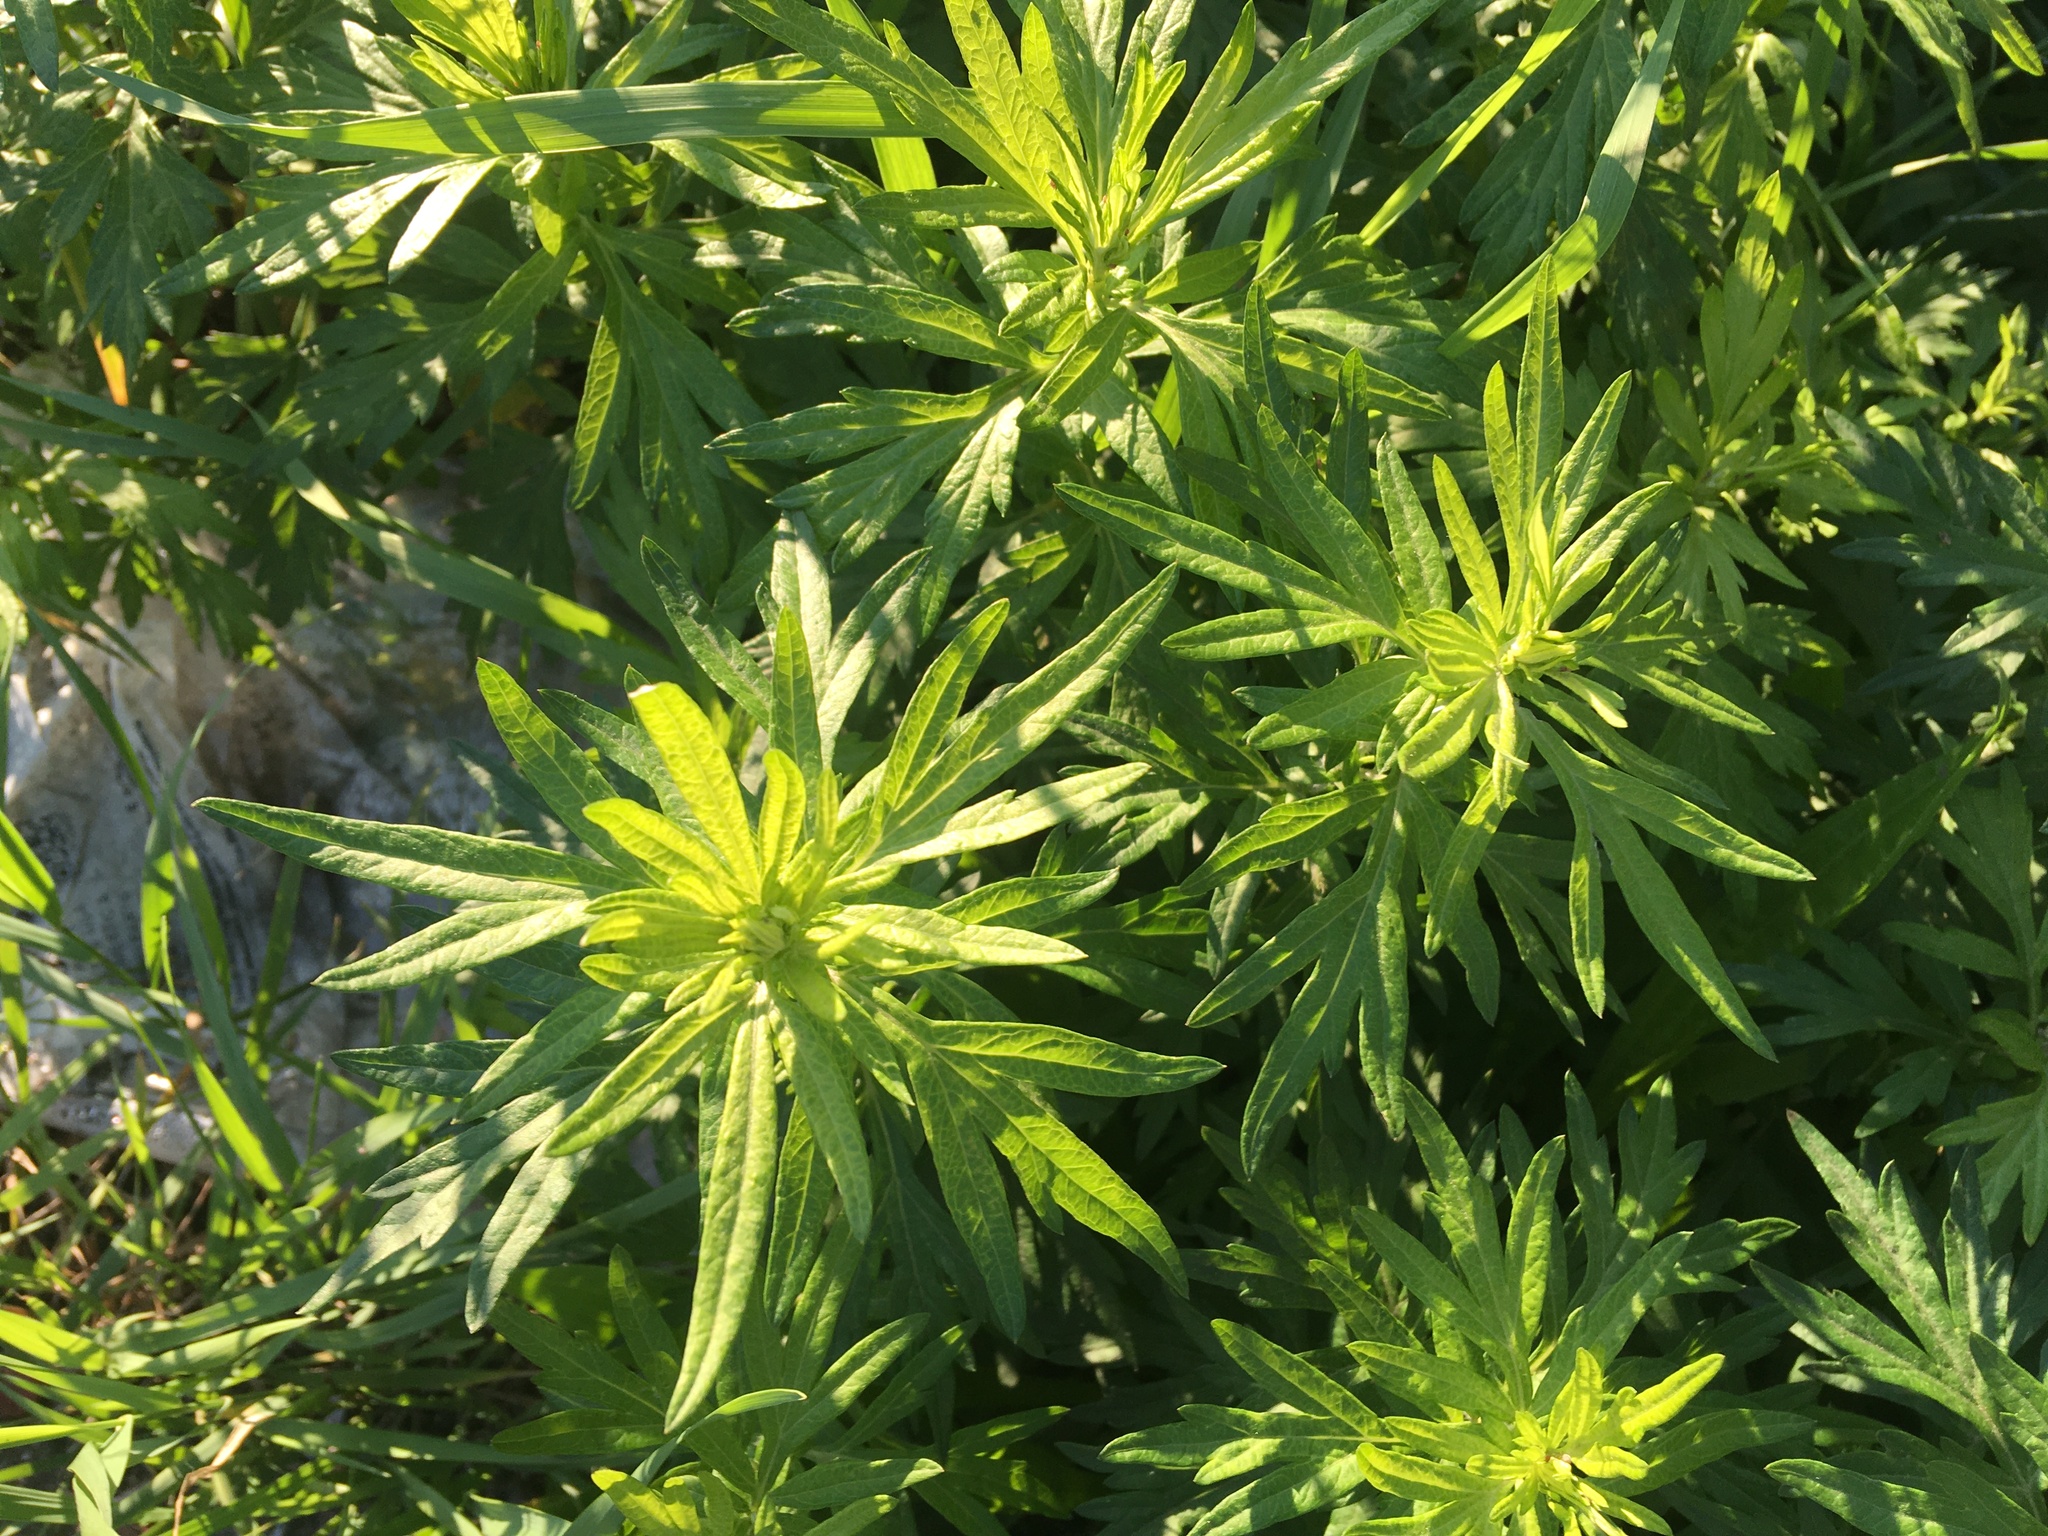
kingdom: Plantae
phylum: Tracheophyta
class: Magnoliopsida
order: Asterales
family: Asteraceae
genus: Artemisia
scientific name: Artemisia vulgaris
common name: Mugwort
